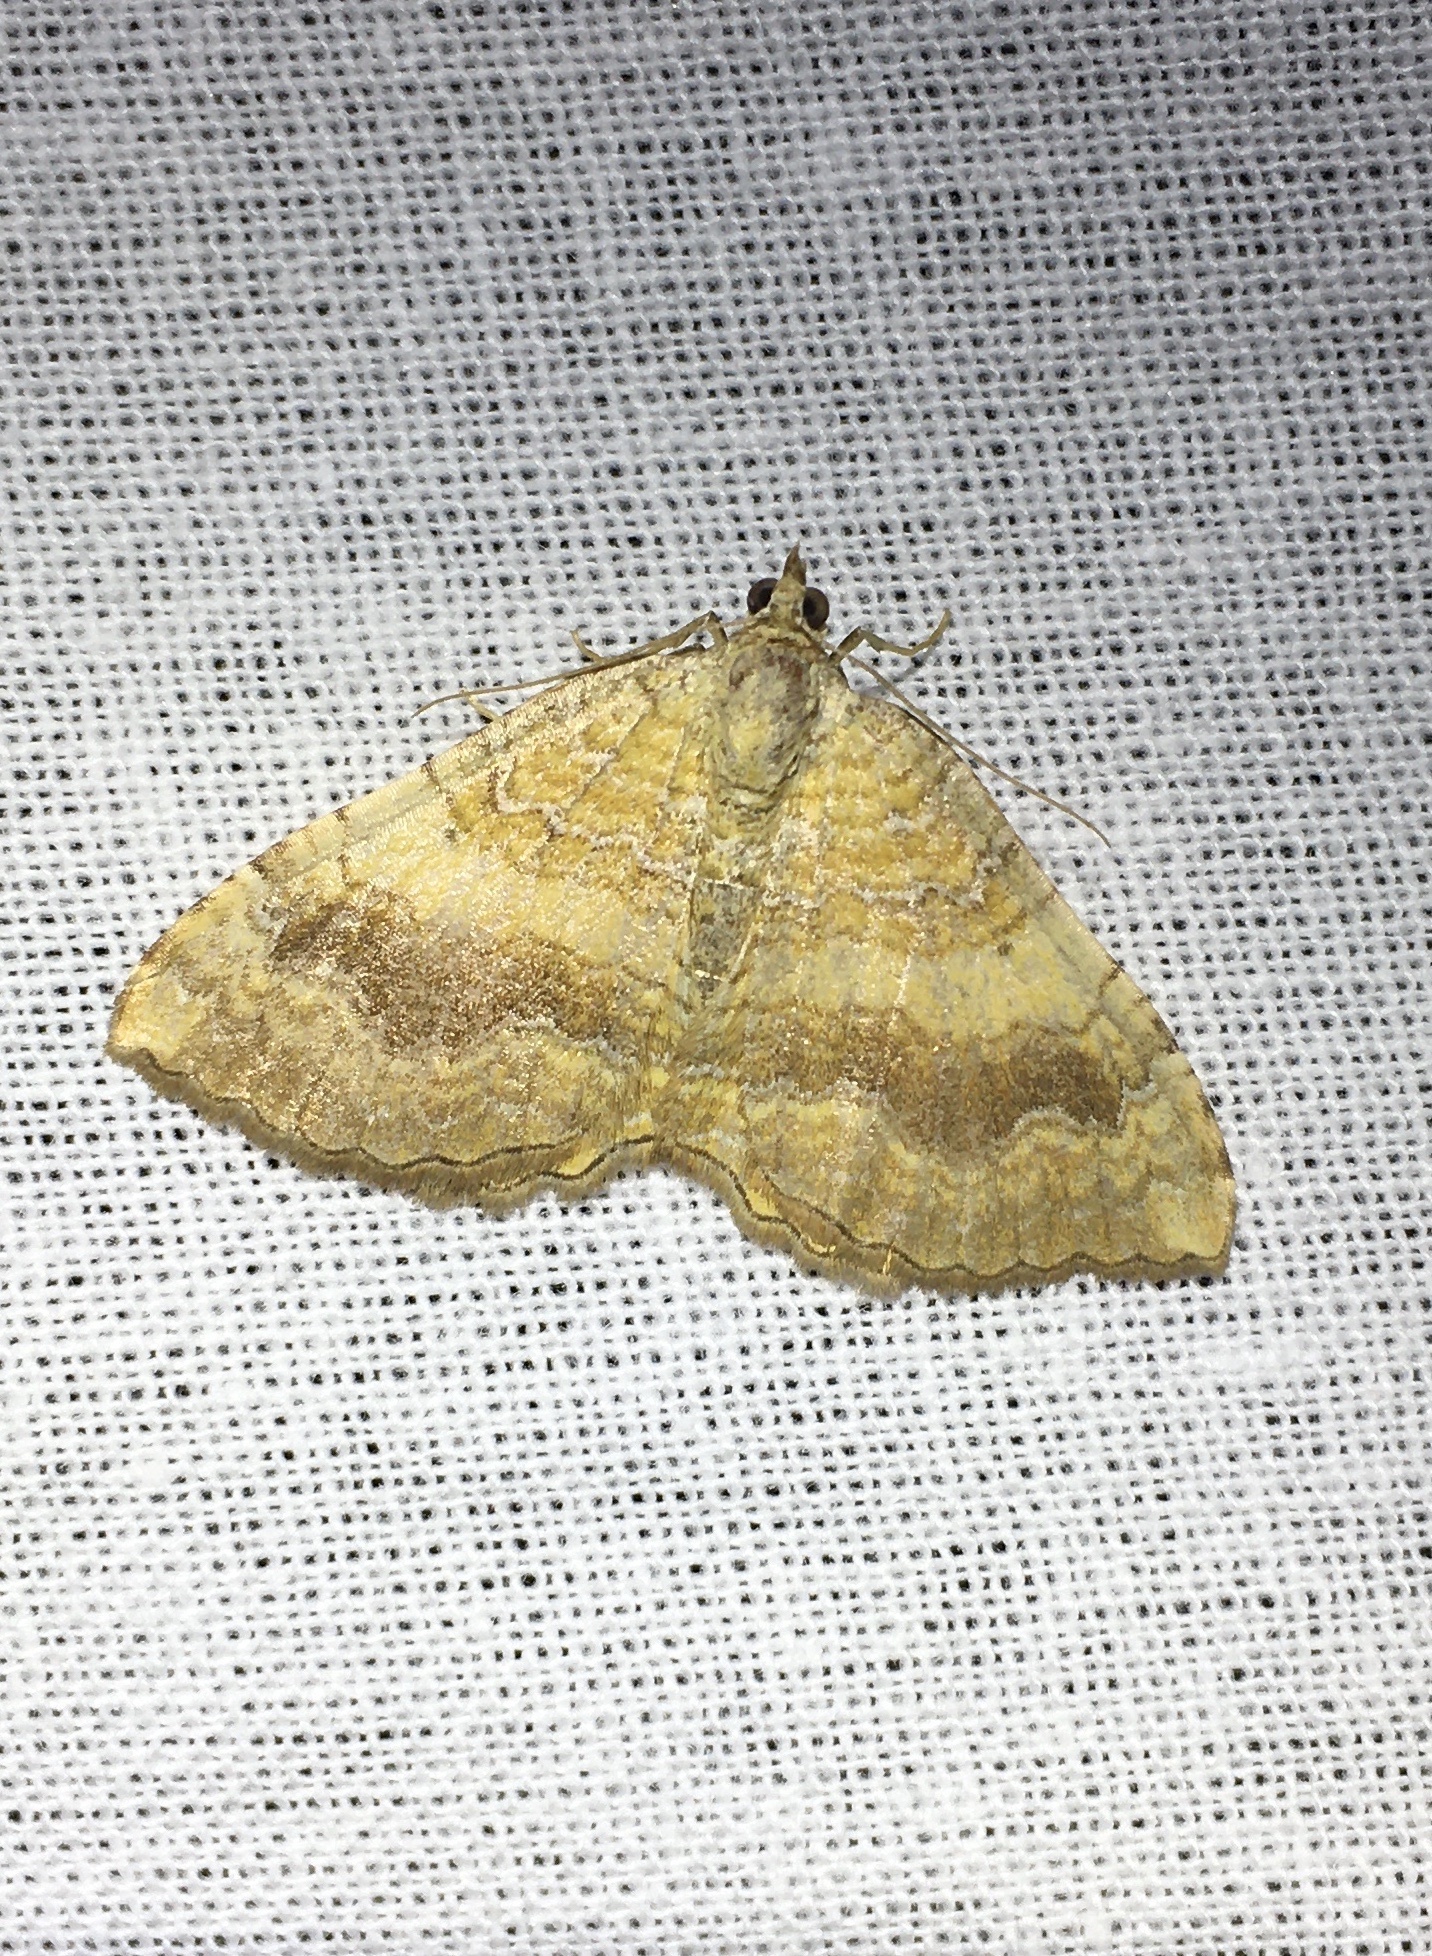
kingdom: Animalia
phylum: Arthropoda
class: Insecta
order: Lepidoptera
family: Geometridae
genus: Camptogramma
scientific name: Camptogramma bilineata
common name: Yellow shell
